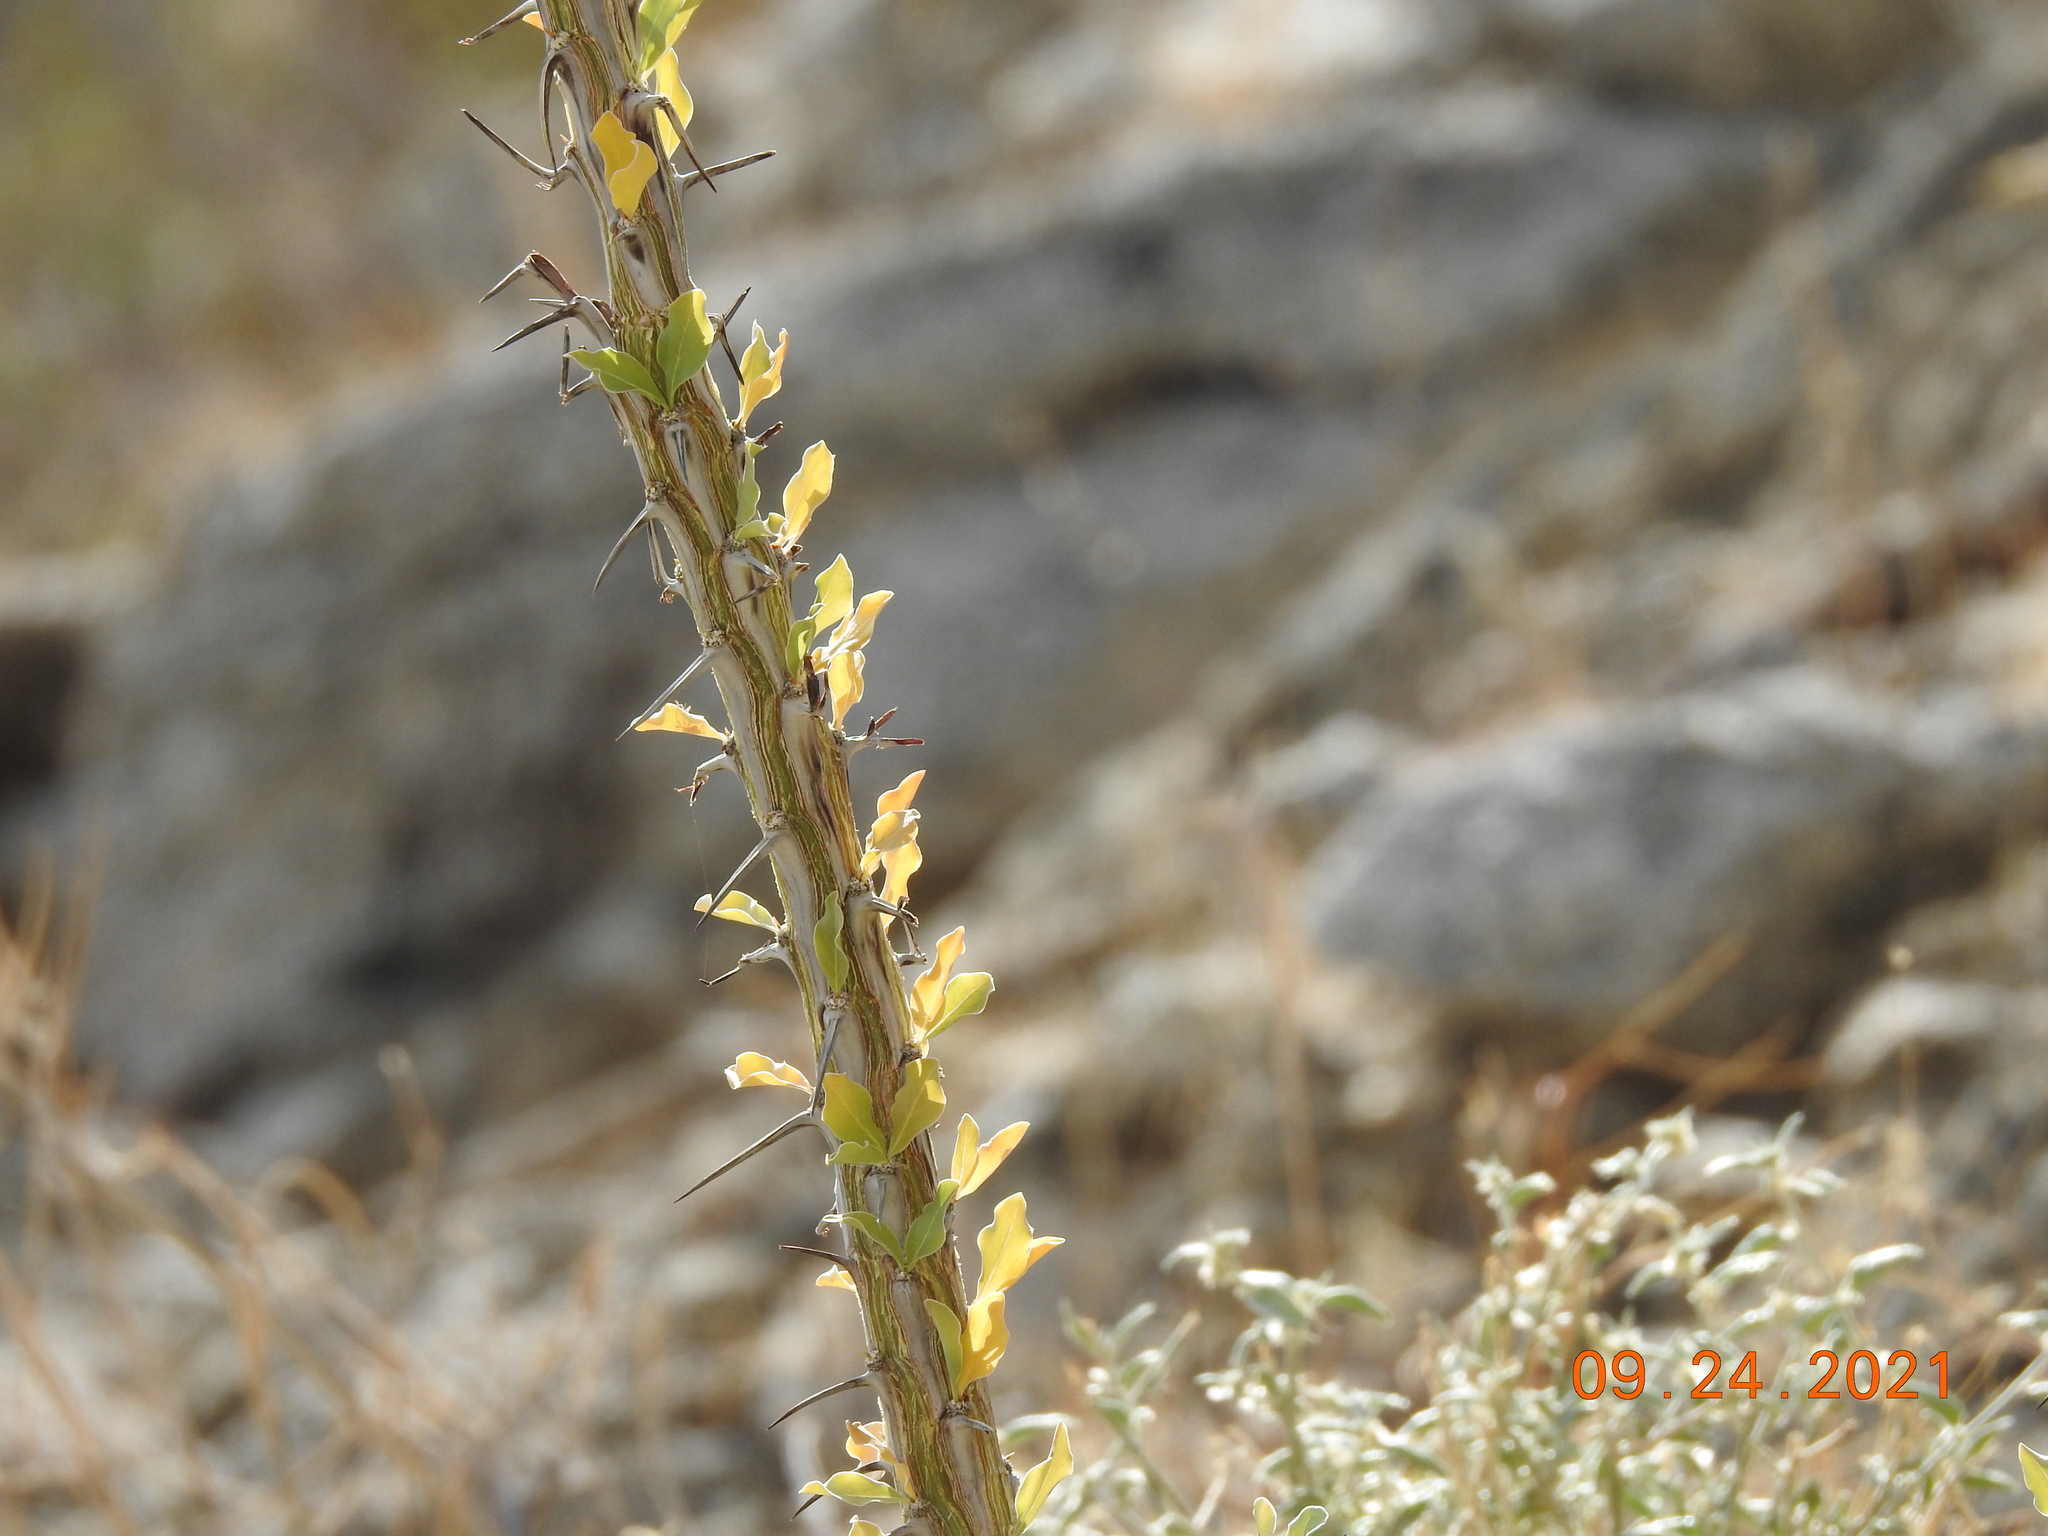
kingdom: Plantae
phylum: Tracheophyta
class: Magnoliopsida
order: Ericales
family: Fouquieriaceae
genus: Fouquieria
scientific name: Fouquieria splendens
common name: Vine-cactus
